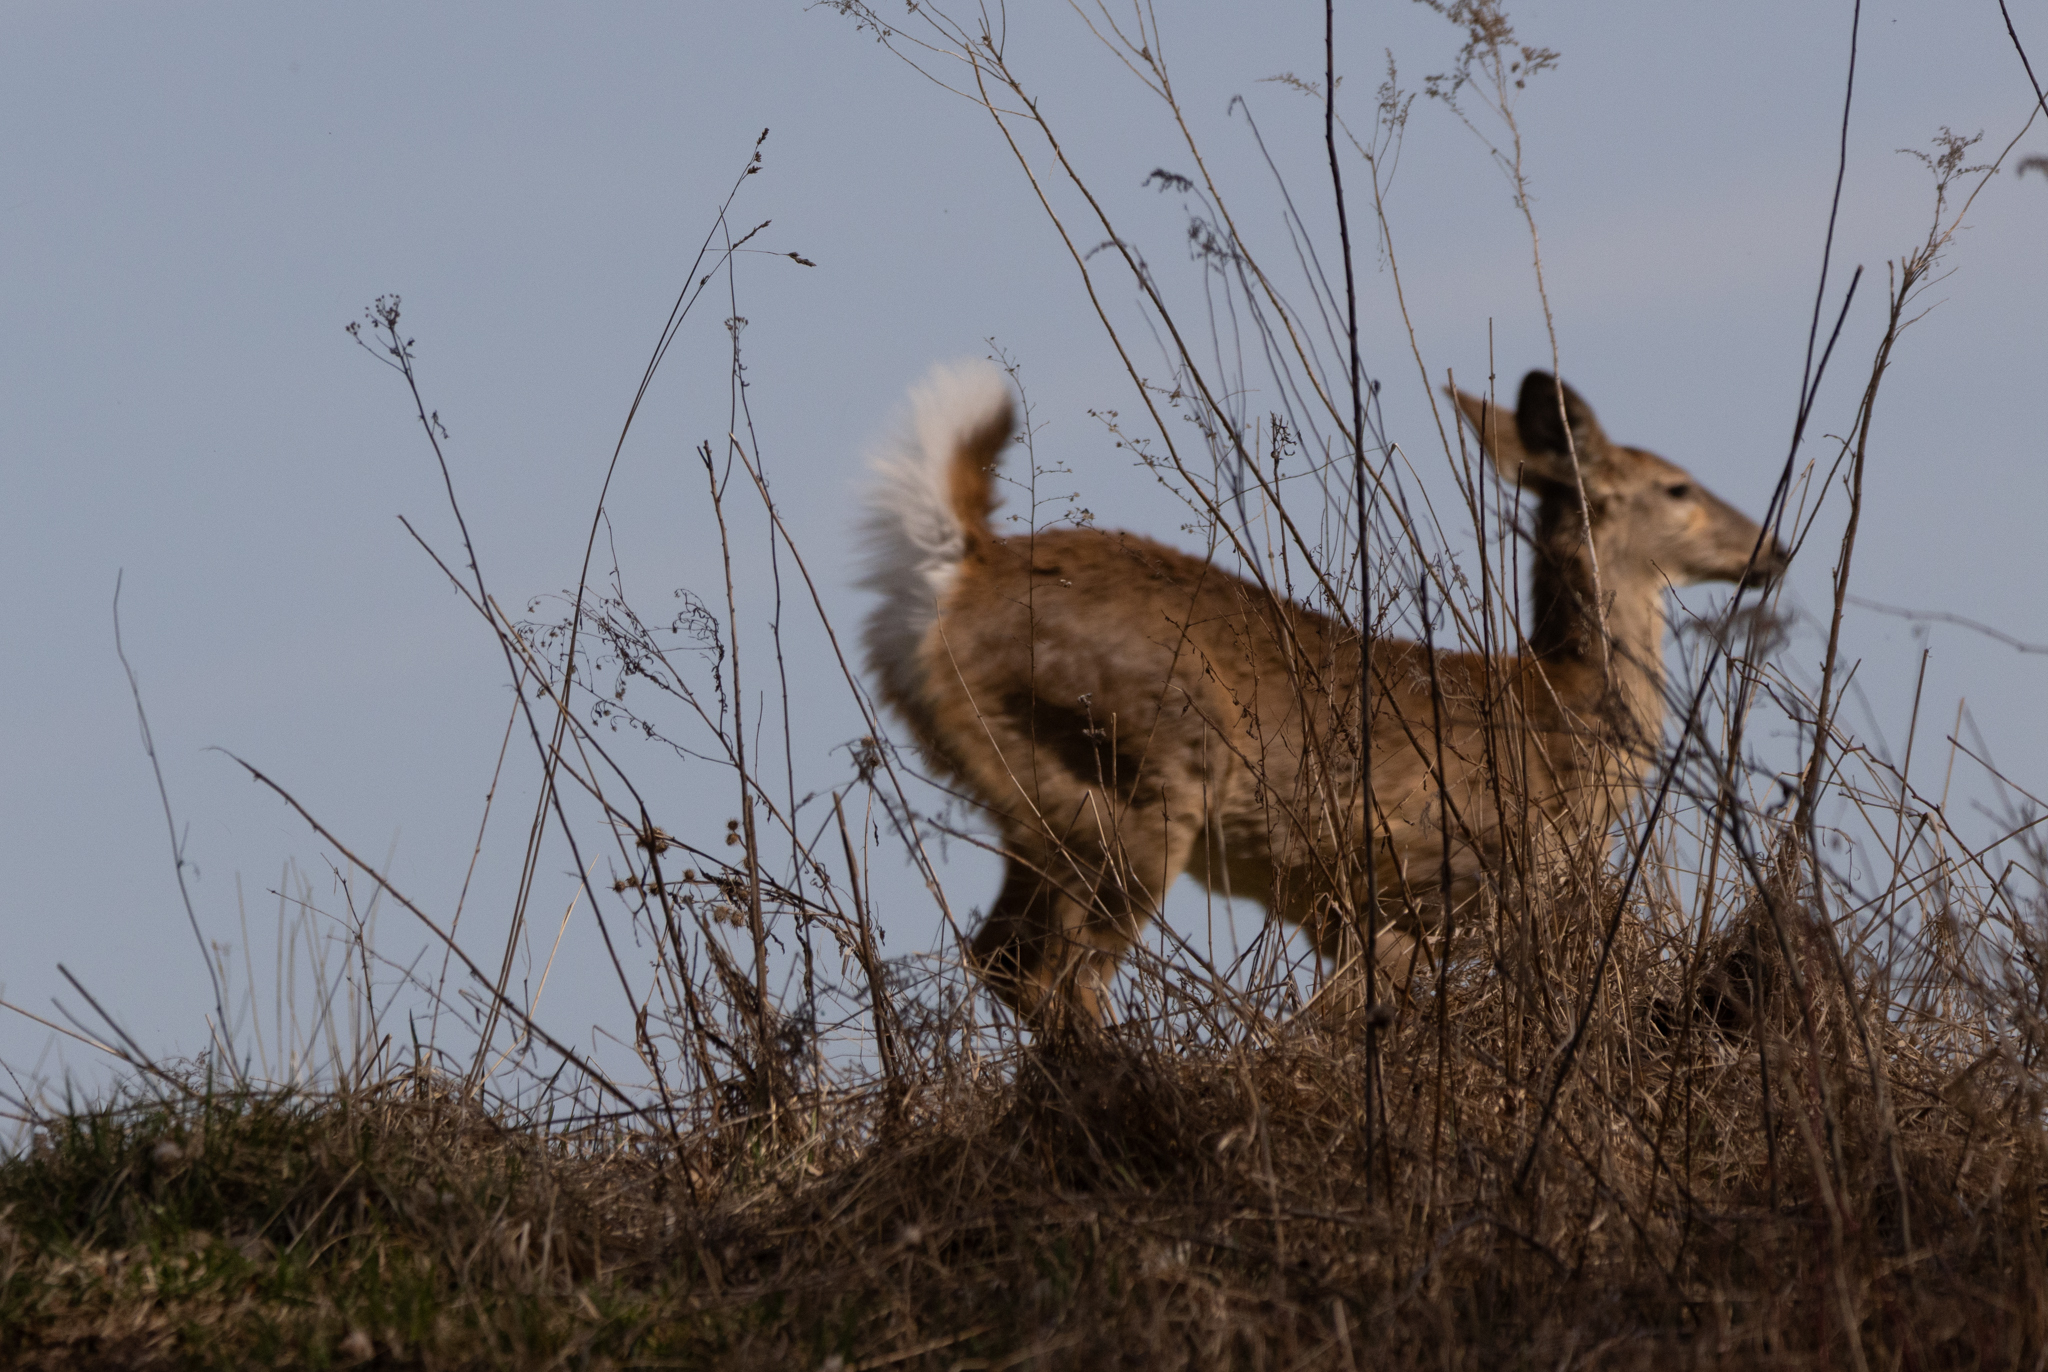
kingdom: Animalia
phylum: Chordata
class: Mammalia
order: Artiodactyla
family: Cervidae
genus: Odocoileus
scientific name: Odocoileus virginianus
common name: White-tailed deer
